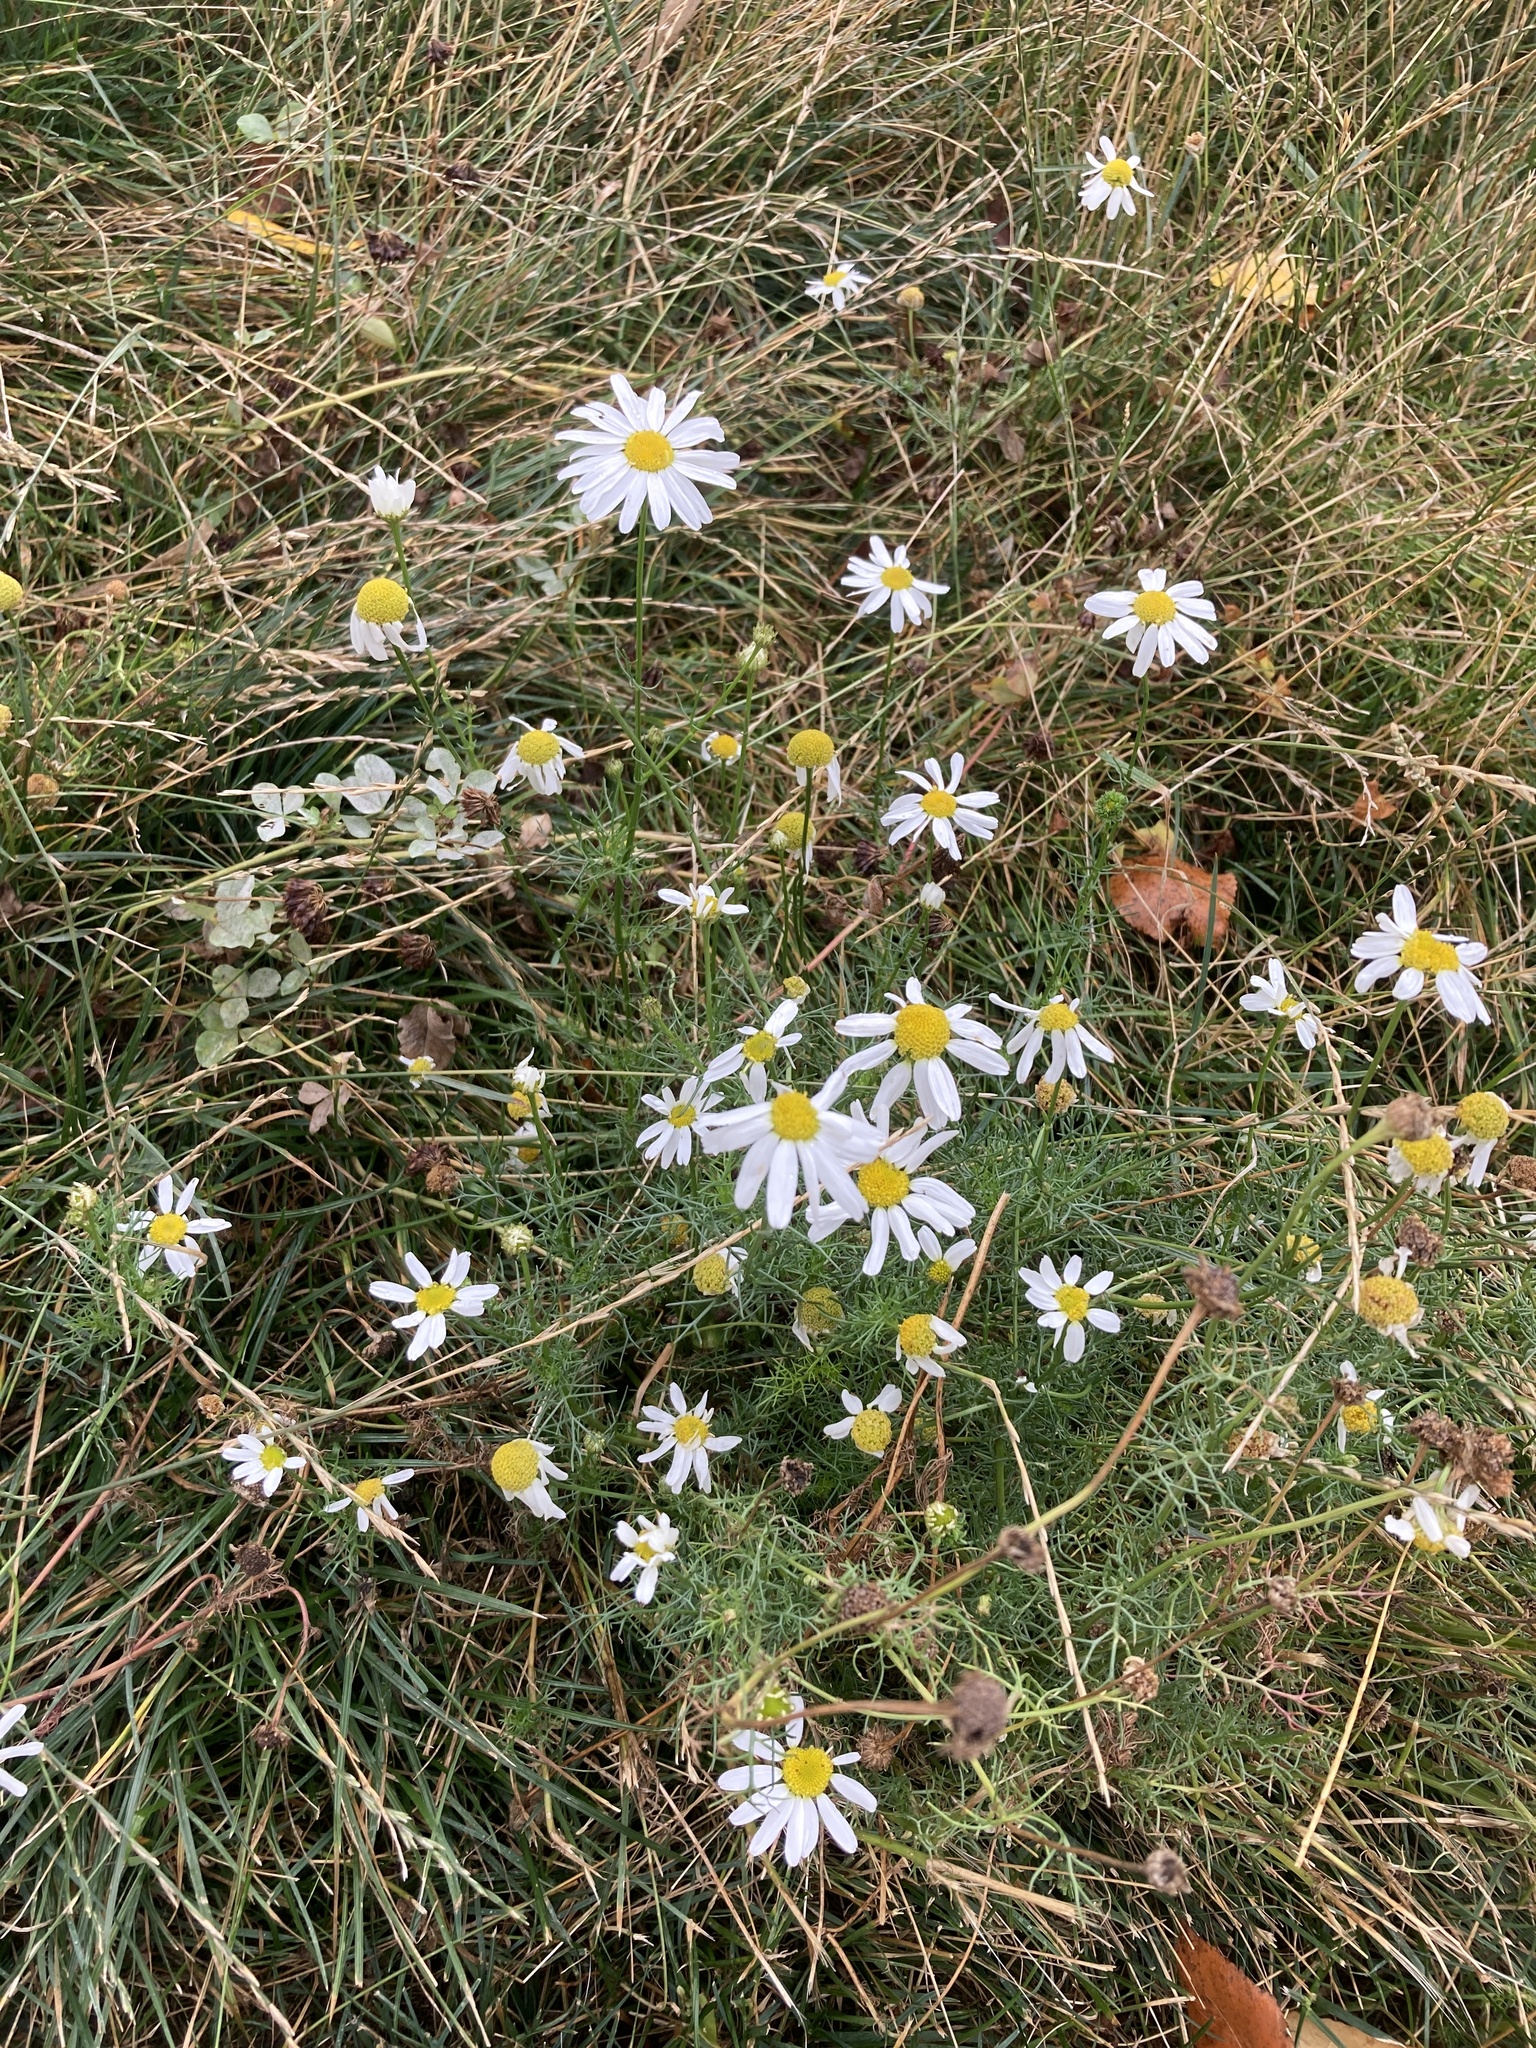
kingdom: Plantae
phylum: Tracheophyta
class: Magnoliopsida
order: Asterales
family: Asteraceae
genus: Tripleurospermum
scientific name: Tripleurospermum inodorum
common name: Scentless mayweed
